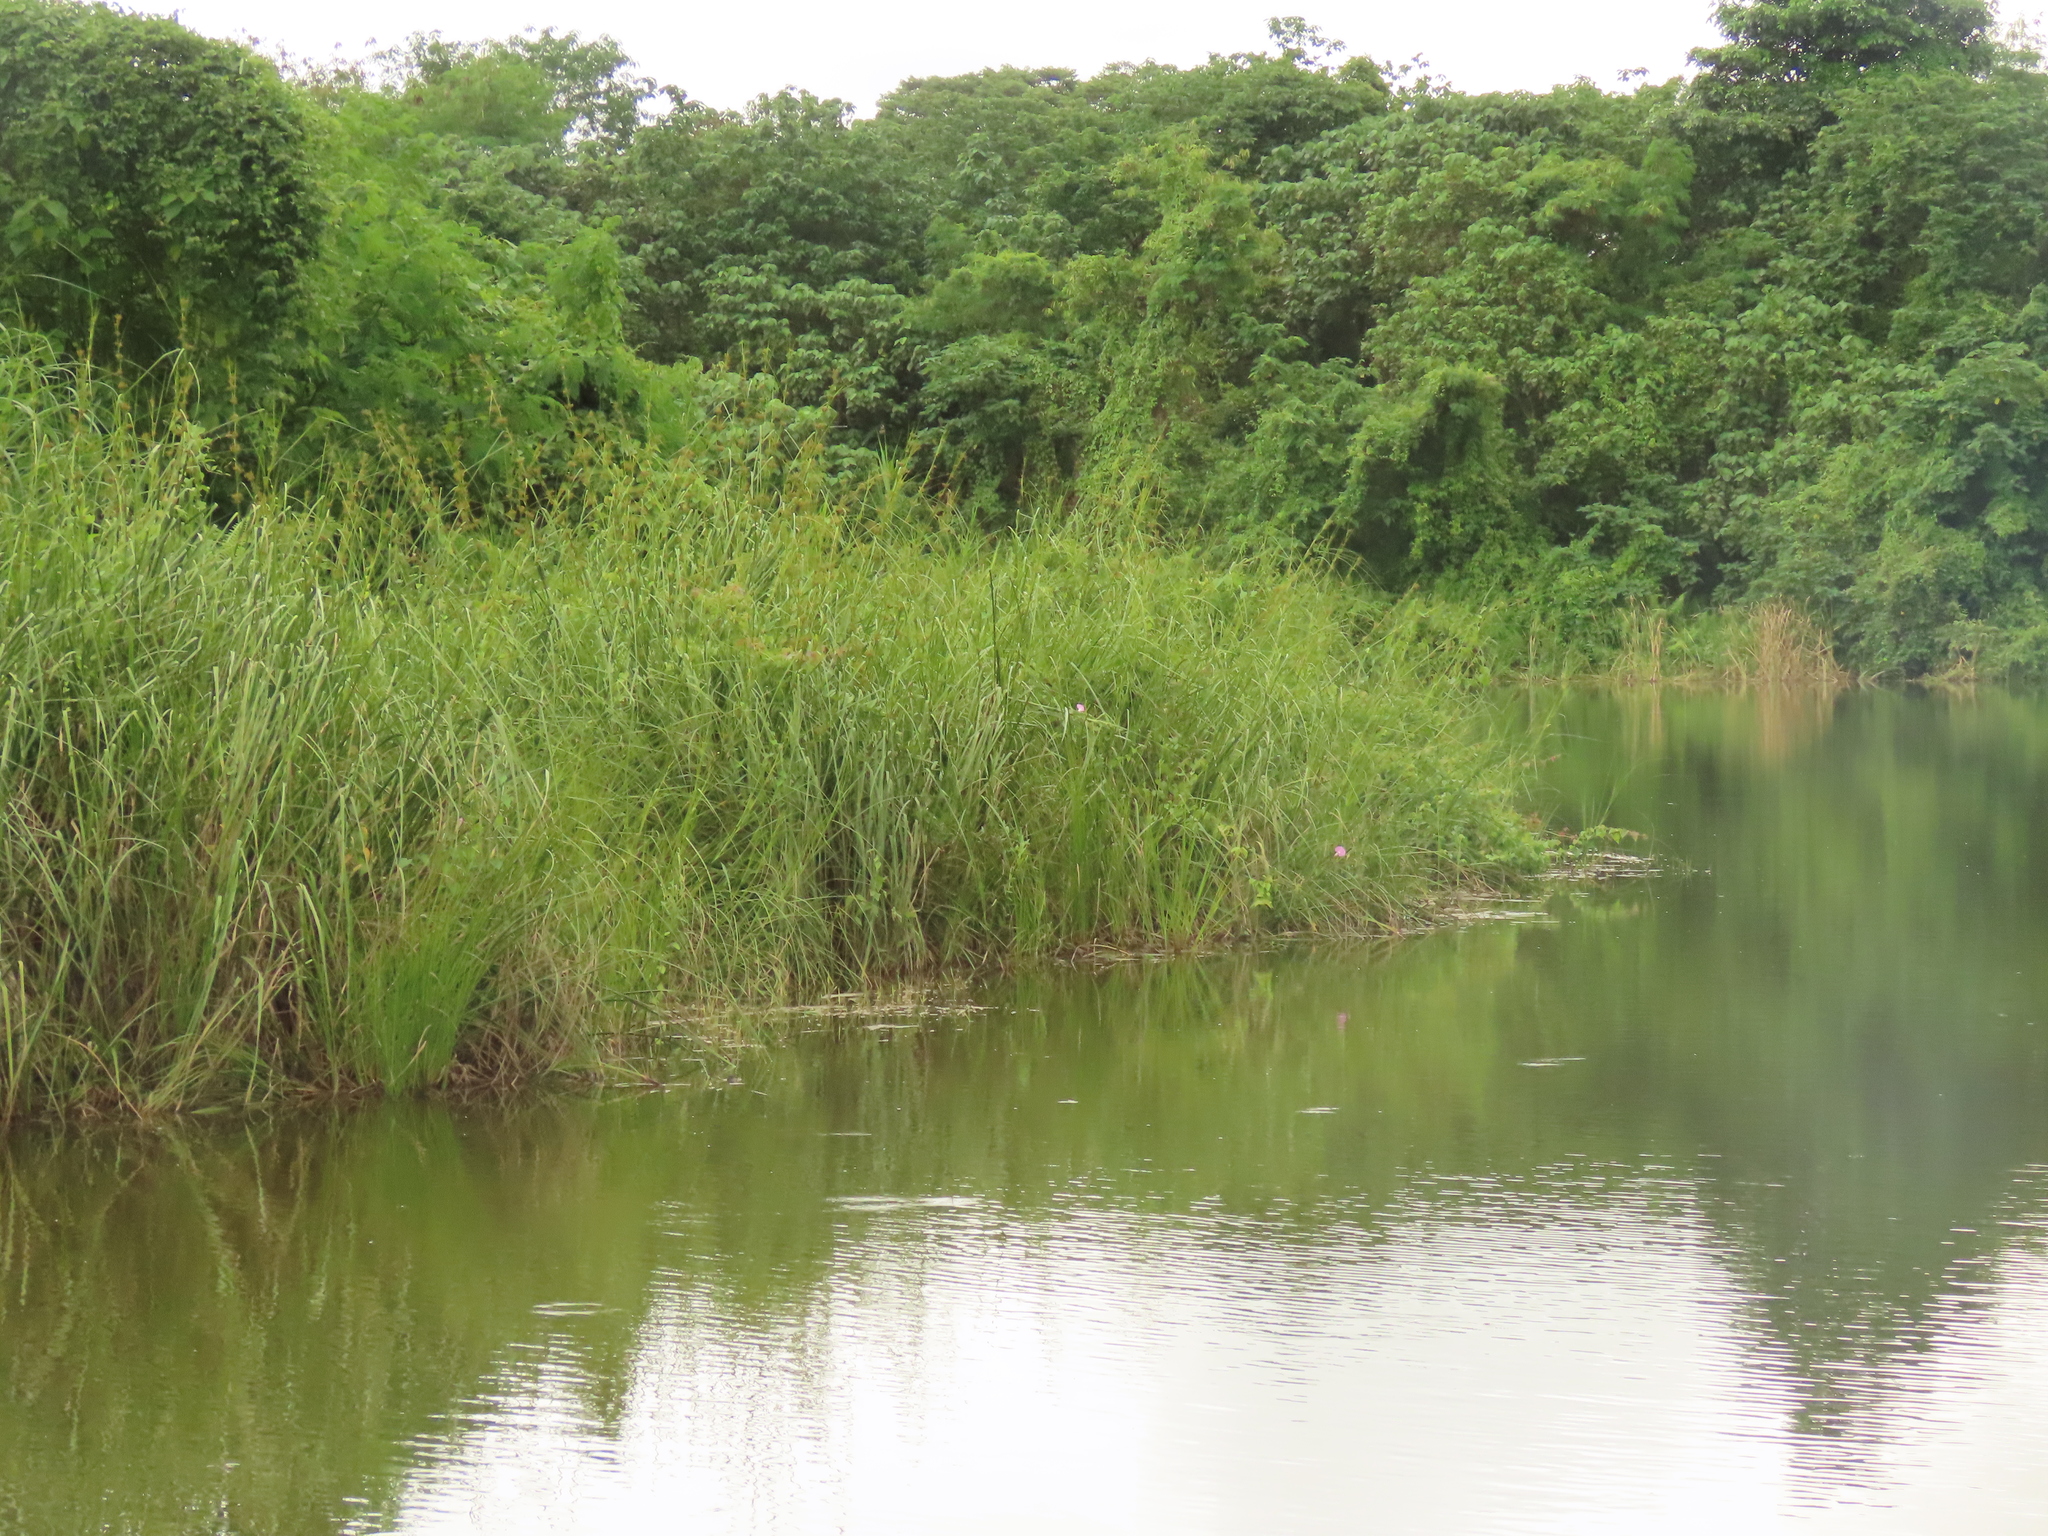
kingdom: Plantae
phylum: Tracheophyta
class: Liliopsida
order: Poales
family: Cyperaceae
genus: Cladium
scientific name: Cladium mariscus
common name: Great fen-sedge
